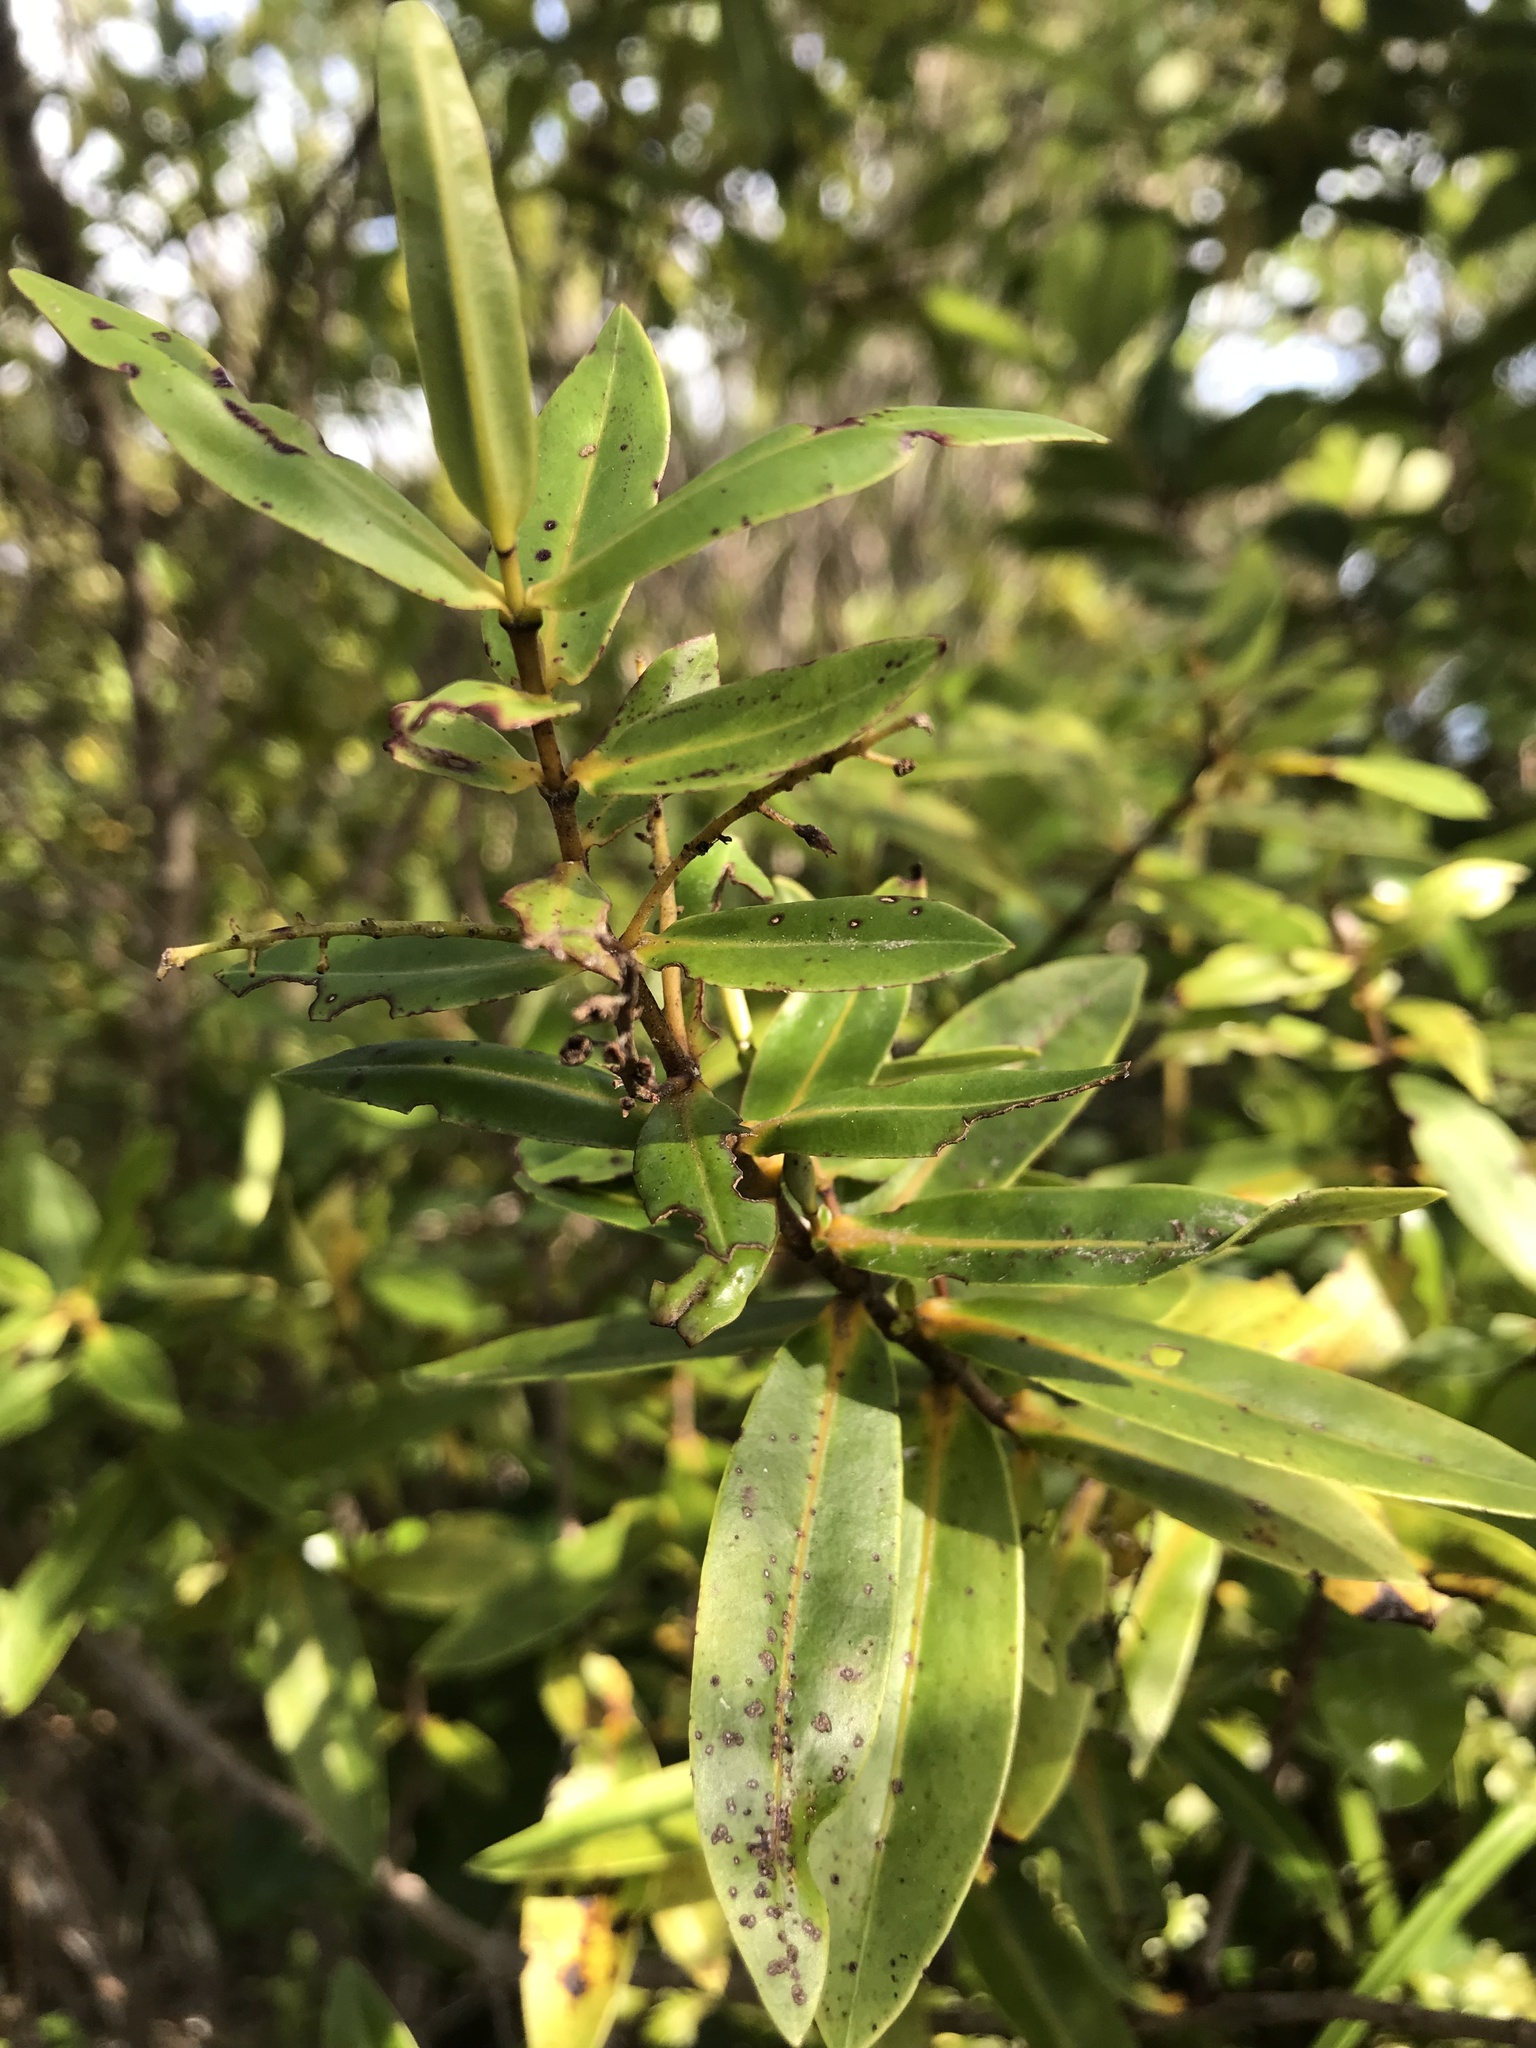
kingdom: Plantae
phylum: Tracheophyta
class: Magnoliopsida
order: Lamiales
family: Plantaginaceae
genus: Veronica
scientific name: Veronica ligustrifolia
